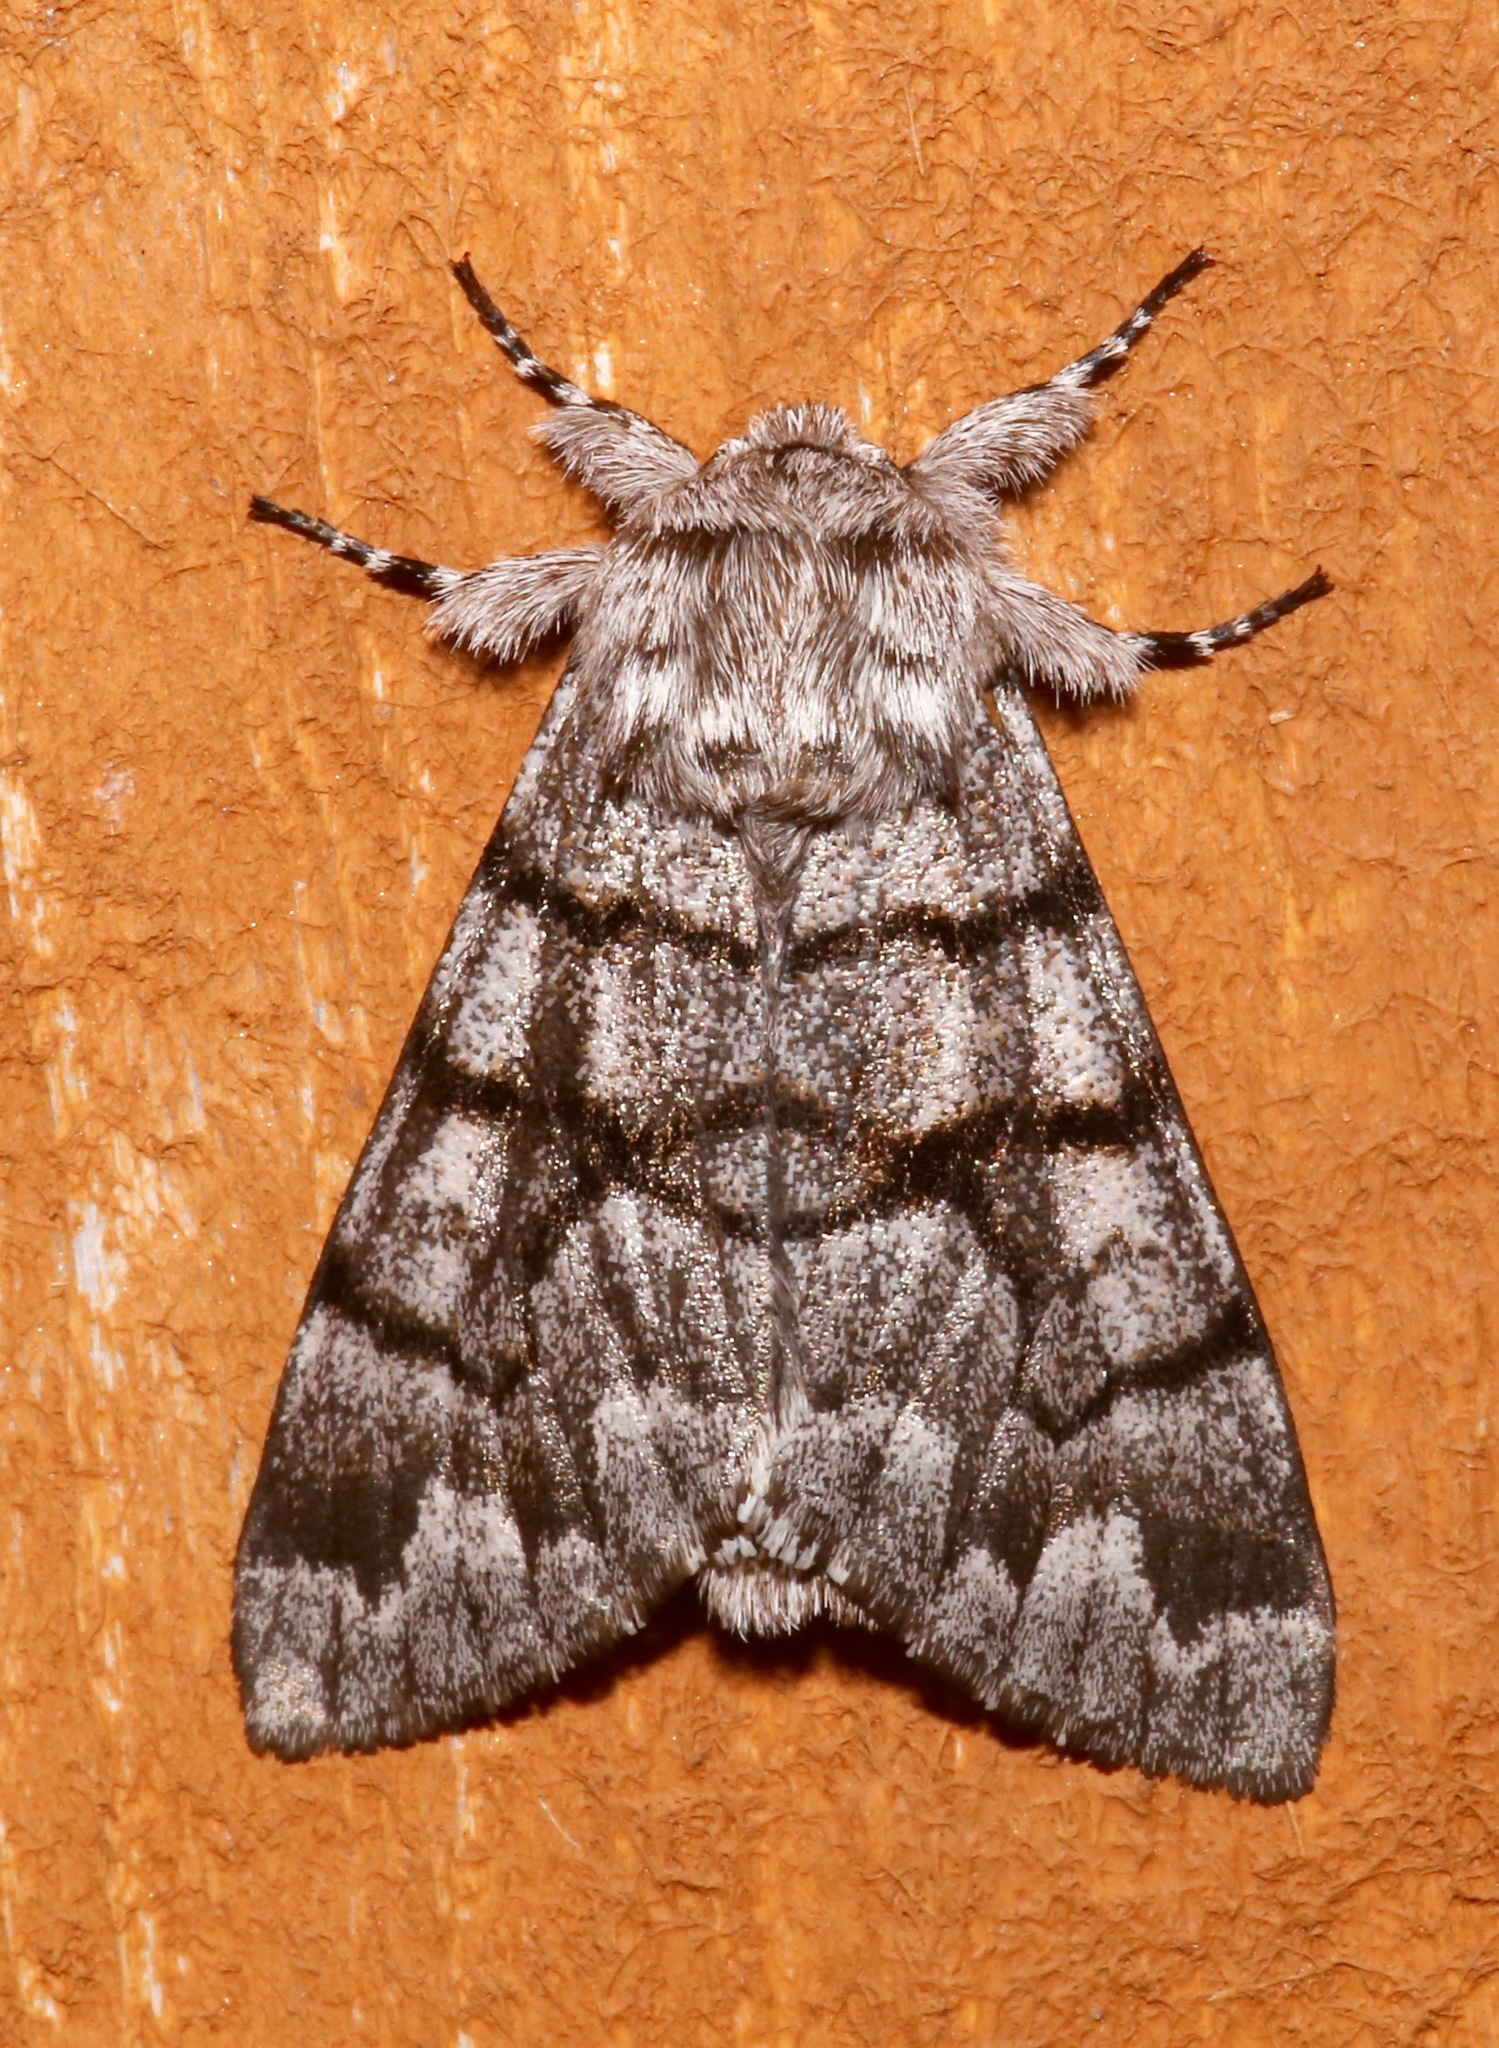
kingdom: Animalia
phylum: Arthropoda
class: Insecta
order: Lepidoptera
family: Noctuidae
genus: Panthea
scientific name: Panthea furcilla
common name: Eastern panthea moth
